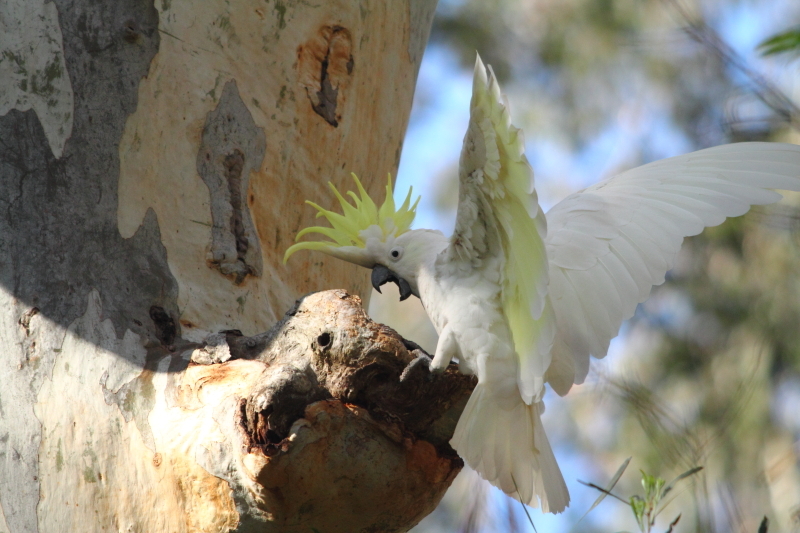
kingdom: Animalia
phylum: Chordata
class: Aves
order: Psittaciformes
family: Psittacidae
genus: Cacatua
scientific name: Cacatua galerita
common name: Sulphur-crested cockatoo
